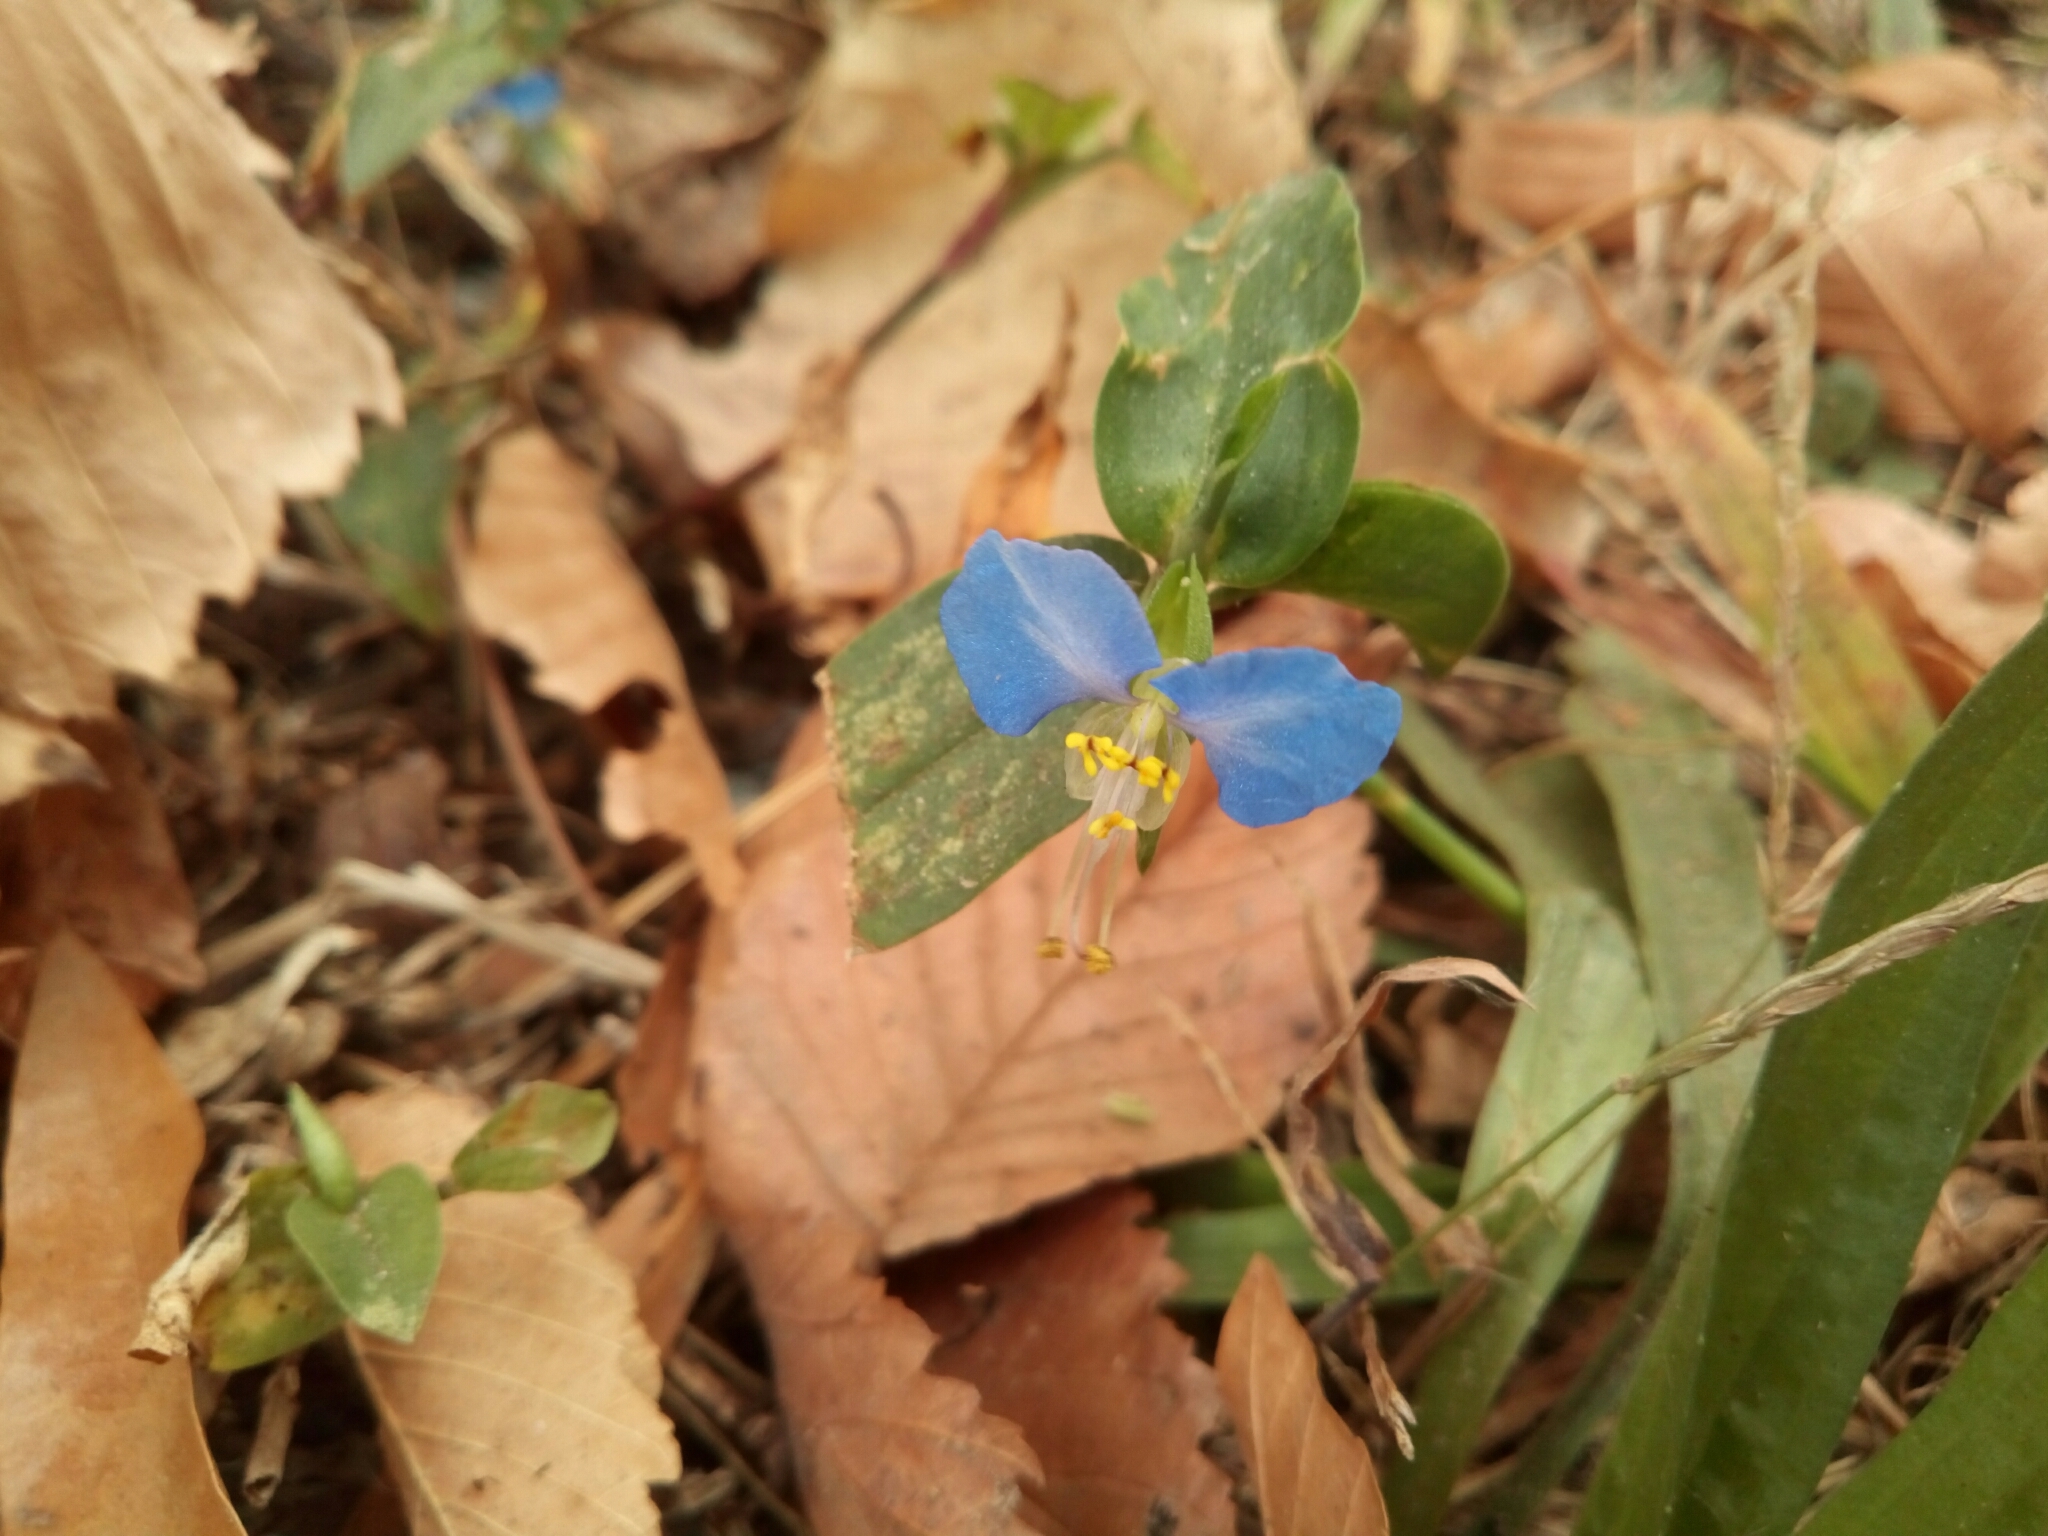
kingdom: Plantae
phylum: Tracheophyta
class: Liliopsida
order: Commelinales
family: Commelinaceae
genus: Commelina
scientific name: Commelina communis
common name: Asiatic dayflower
